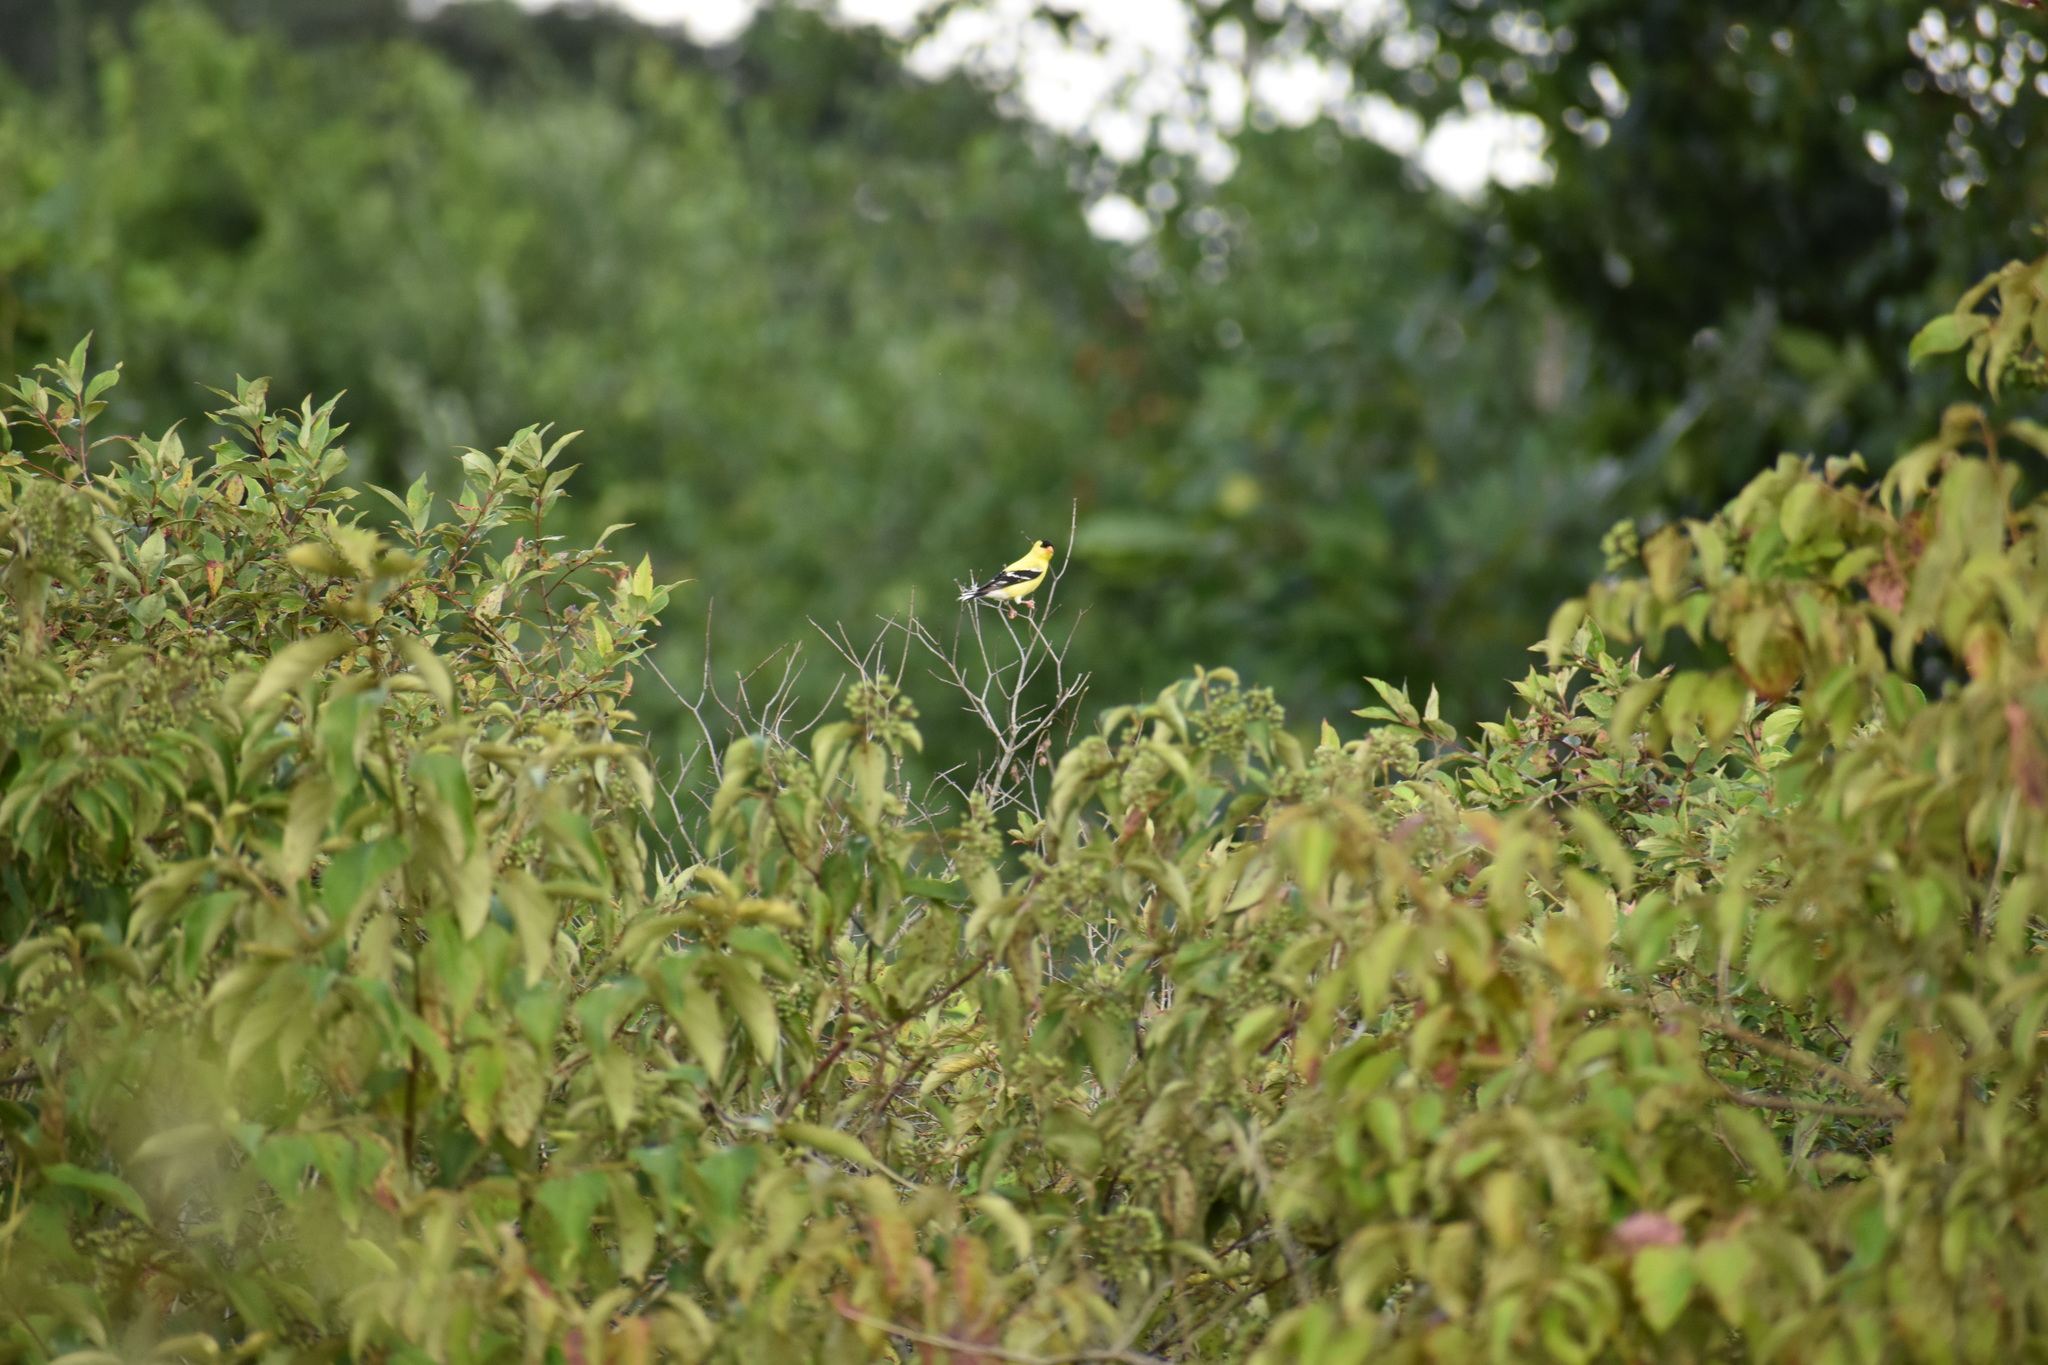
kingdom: Animalia
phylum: Chordata
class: Aves
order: Passeriformes
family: Fringillidae
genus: Spinus
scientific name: Spinus tristis
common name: American goldfinch
